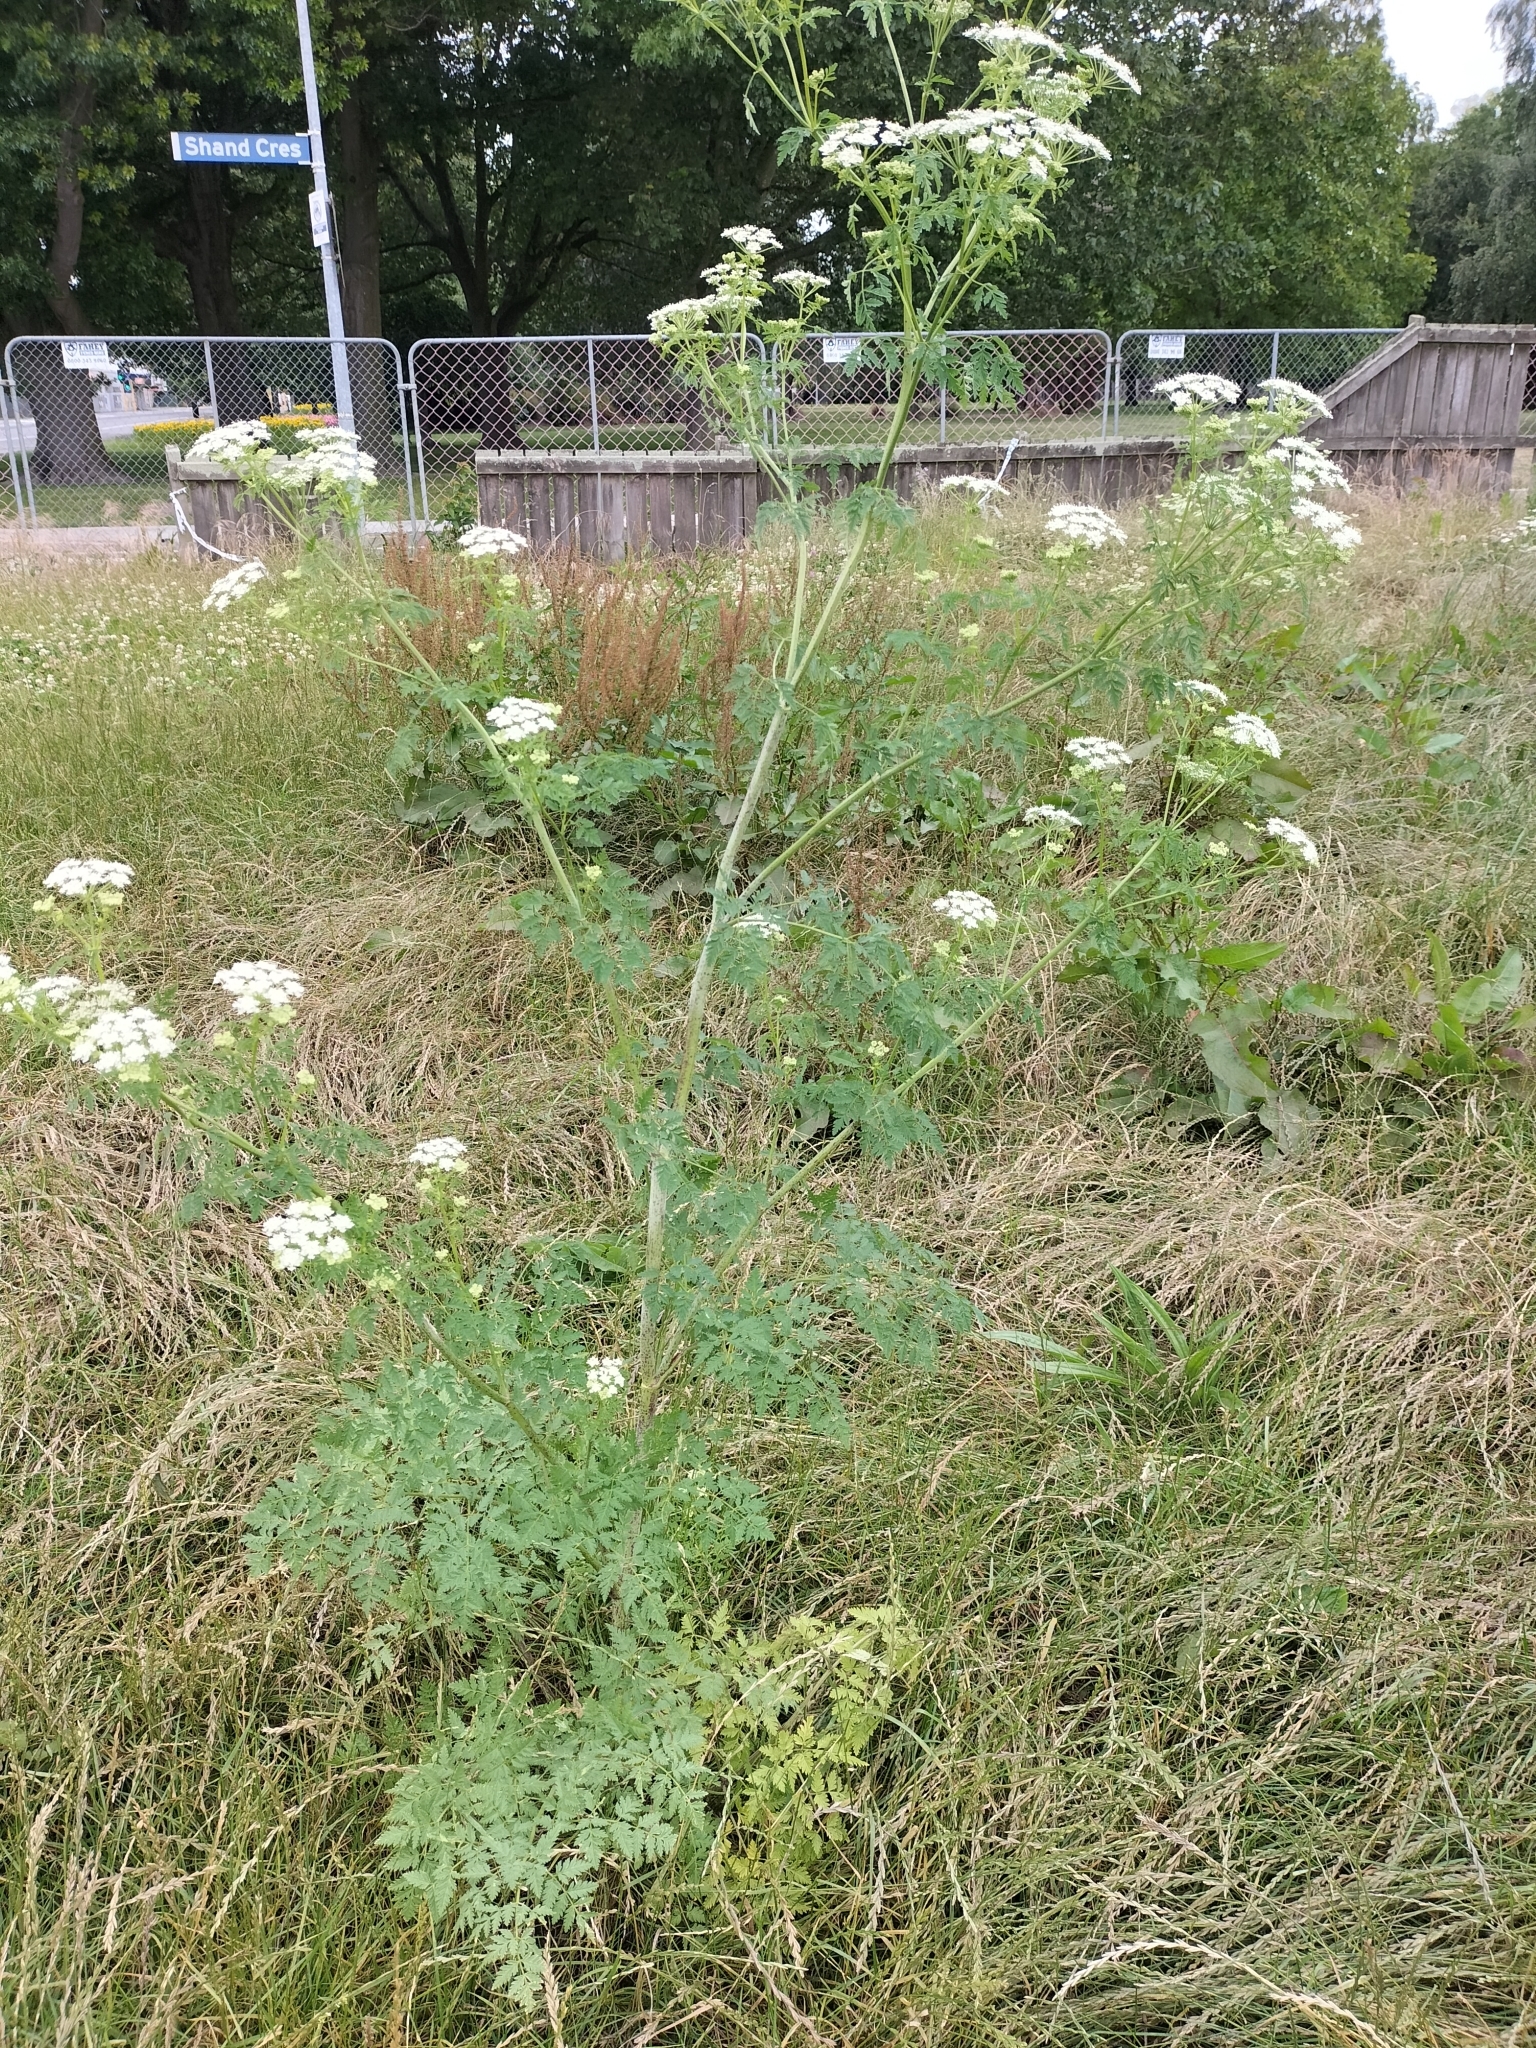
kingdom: Plantae
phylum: Tracheophyta
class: Magnoliopsida
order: Apiales
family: Apiaceae
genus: Conium
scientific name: Conium maculatum
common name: Hemlock
